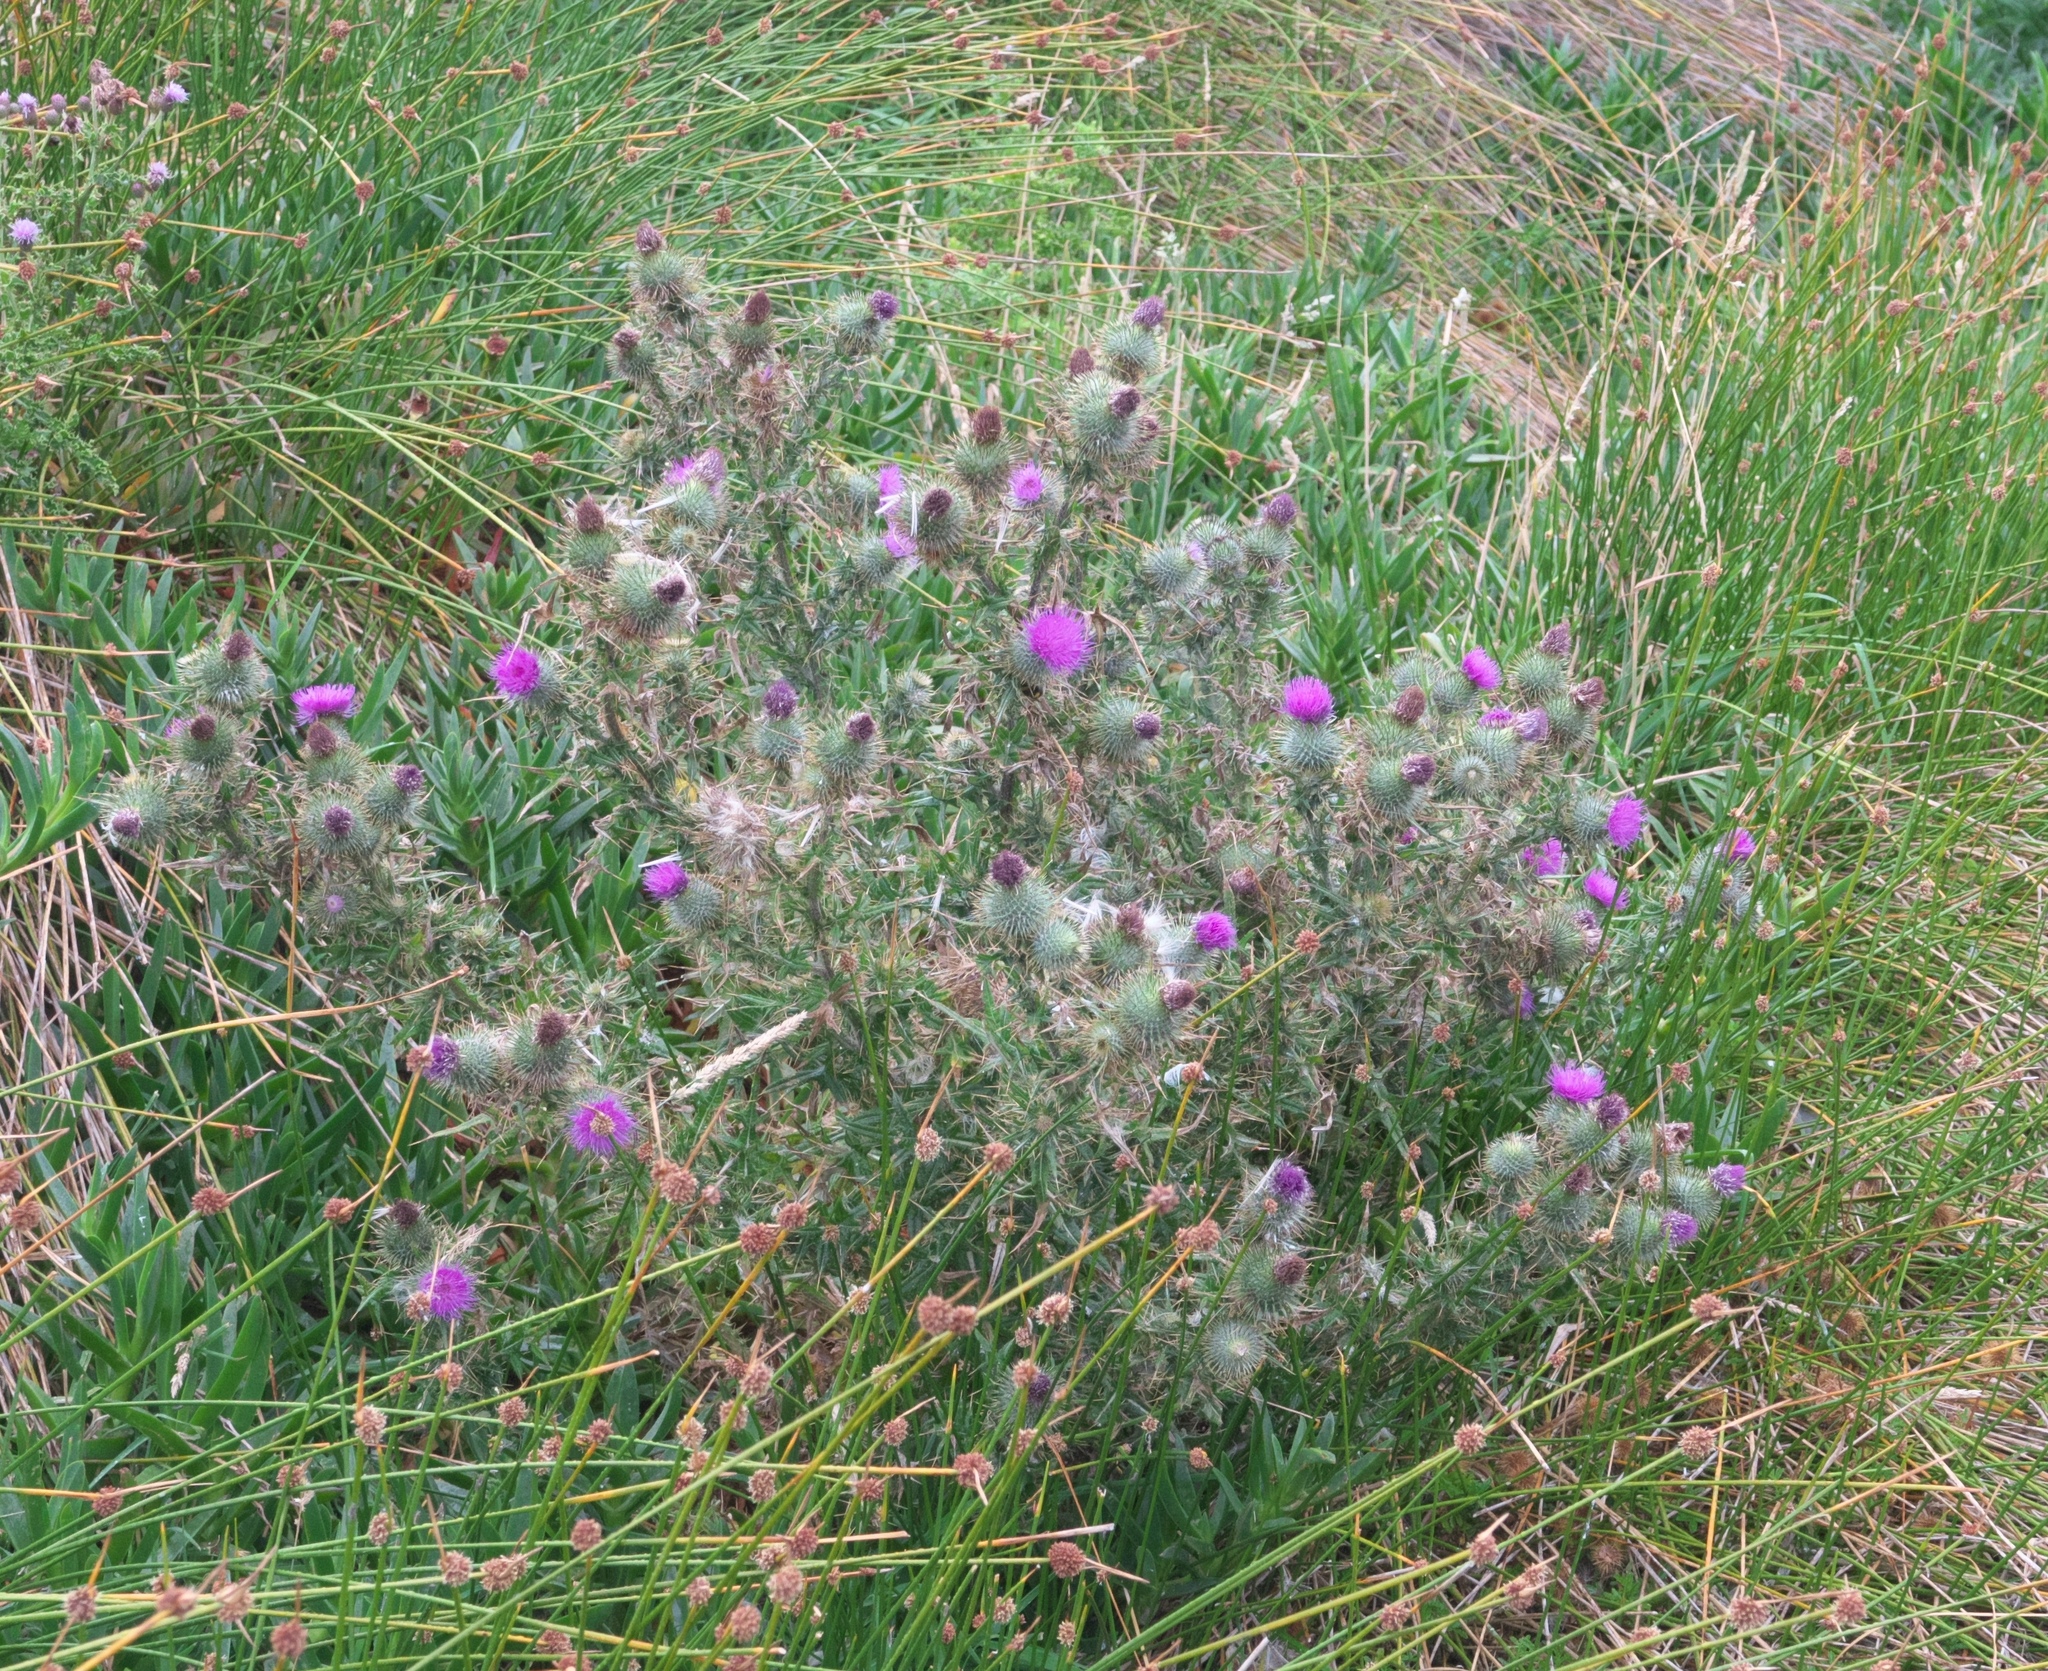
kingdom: Plantae
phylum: Tracheophyta
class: Magnoliopsida
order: Asterales
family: Asteraceae
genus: Cirsium
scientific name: Cirsium vulgare
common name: Bull thistle
